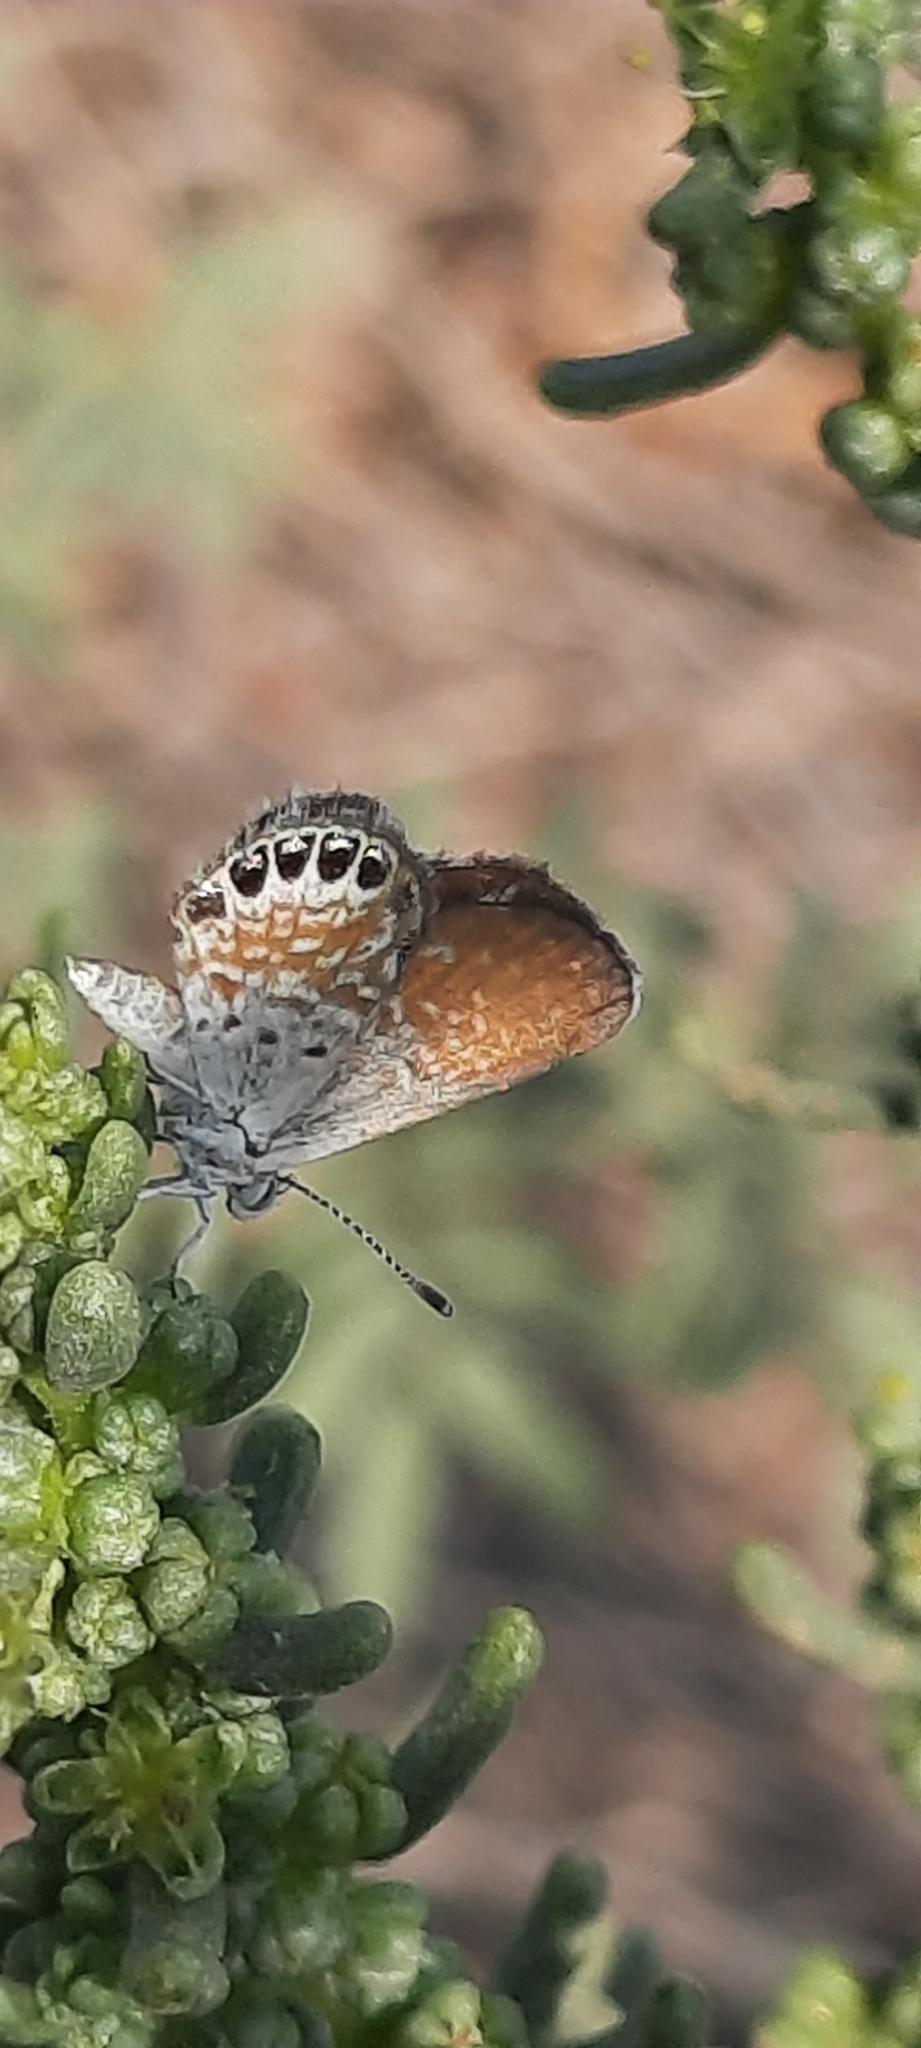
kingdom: Animalia
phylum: Arthropoda
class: Insecta
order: Lepidoptera
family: Lycaenidae
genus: Brephidium
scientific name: Brephidium exilis
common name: Pygmy blue
